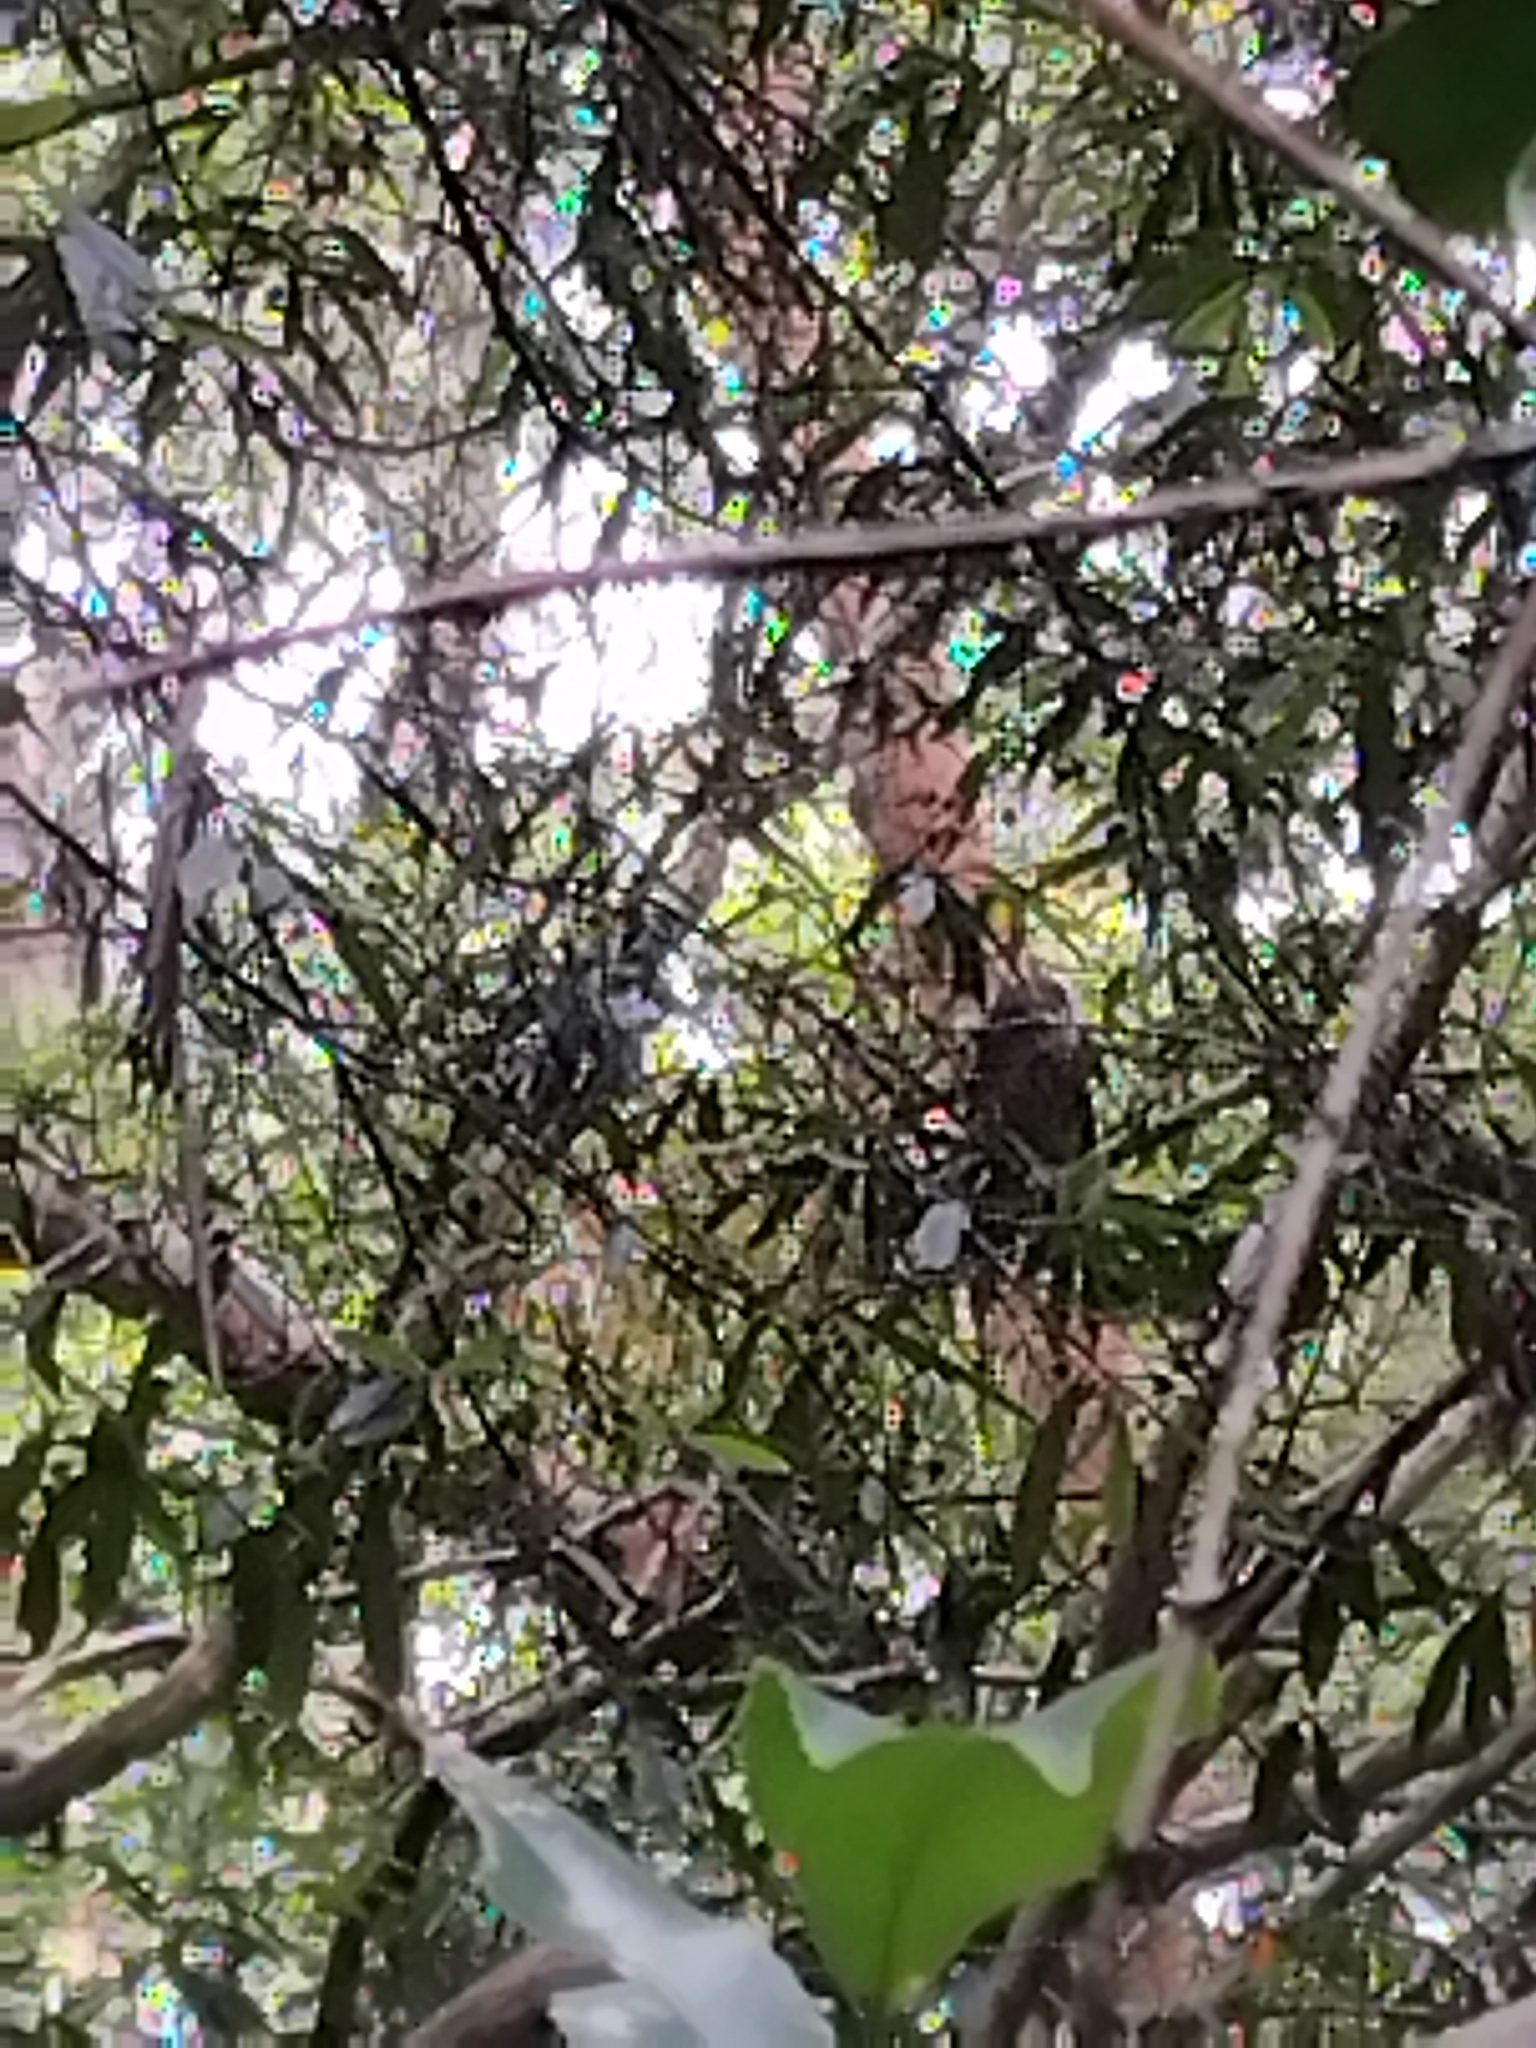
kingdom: Animalia
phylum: Chordata
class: Aves
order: Strigiformes
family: Strigidae
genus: Ninox
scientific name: Ninox boobook
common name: Southern boobook
